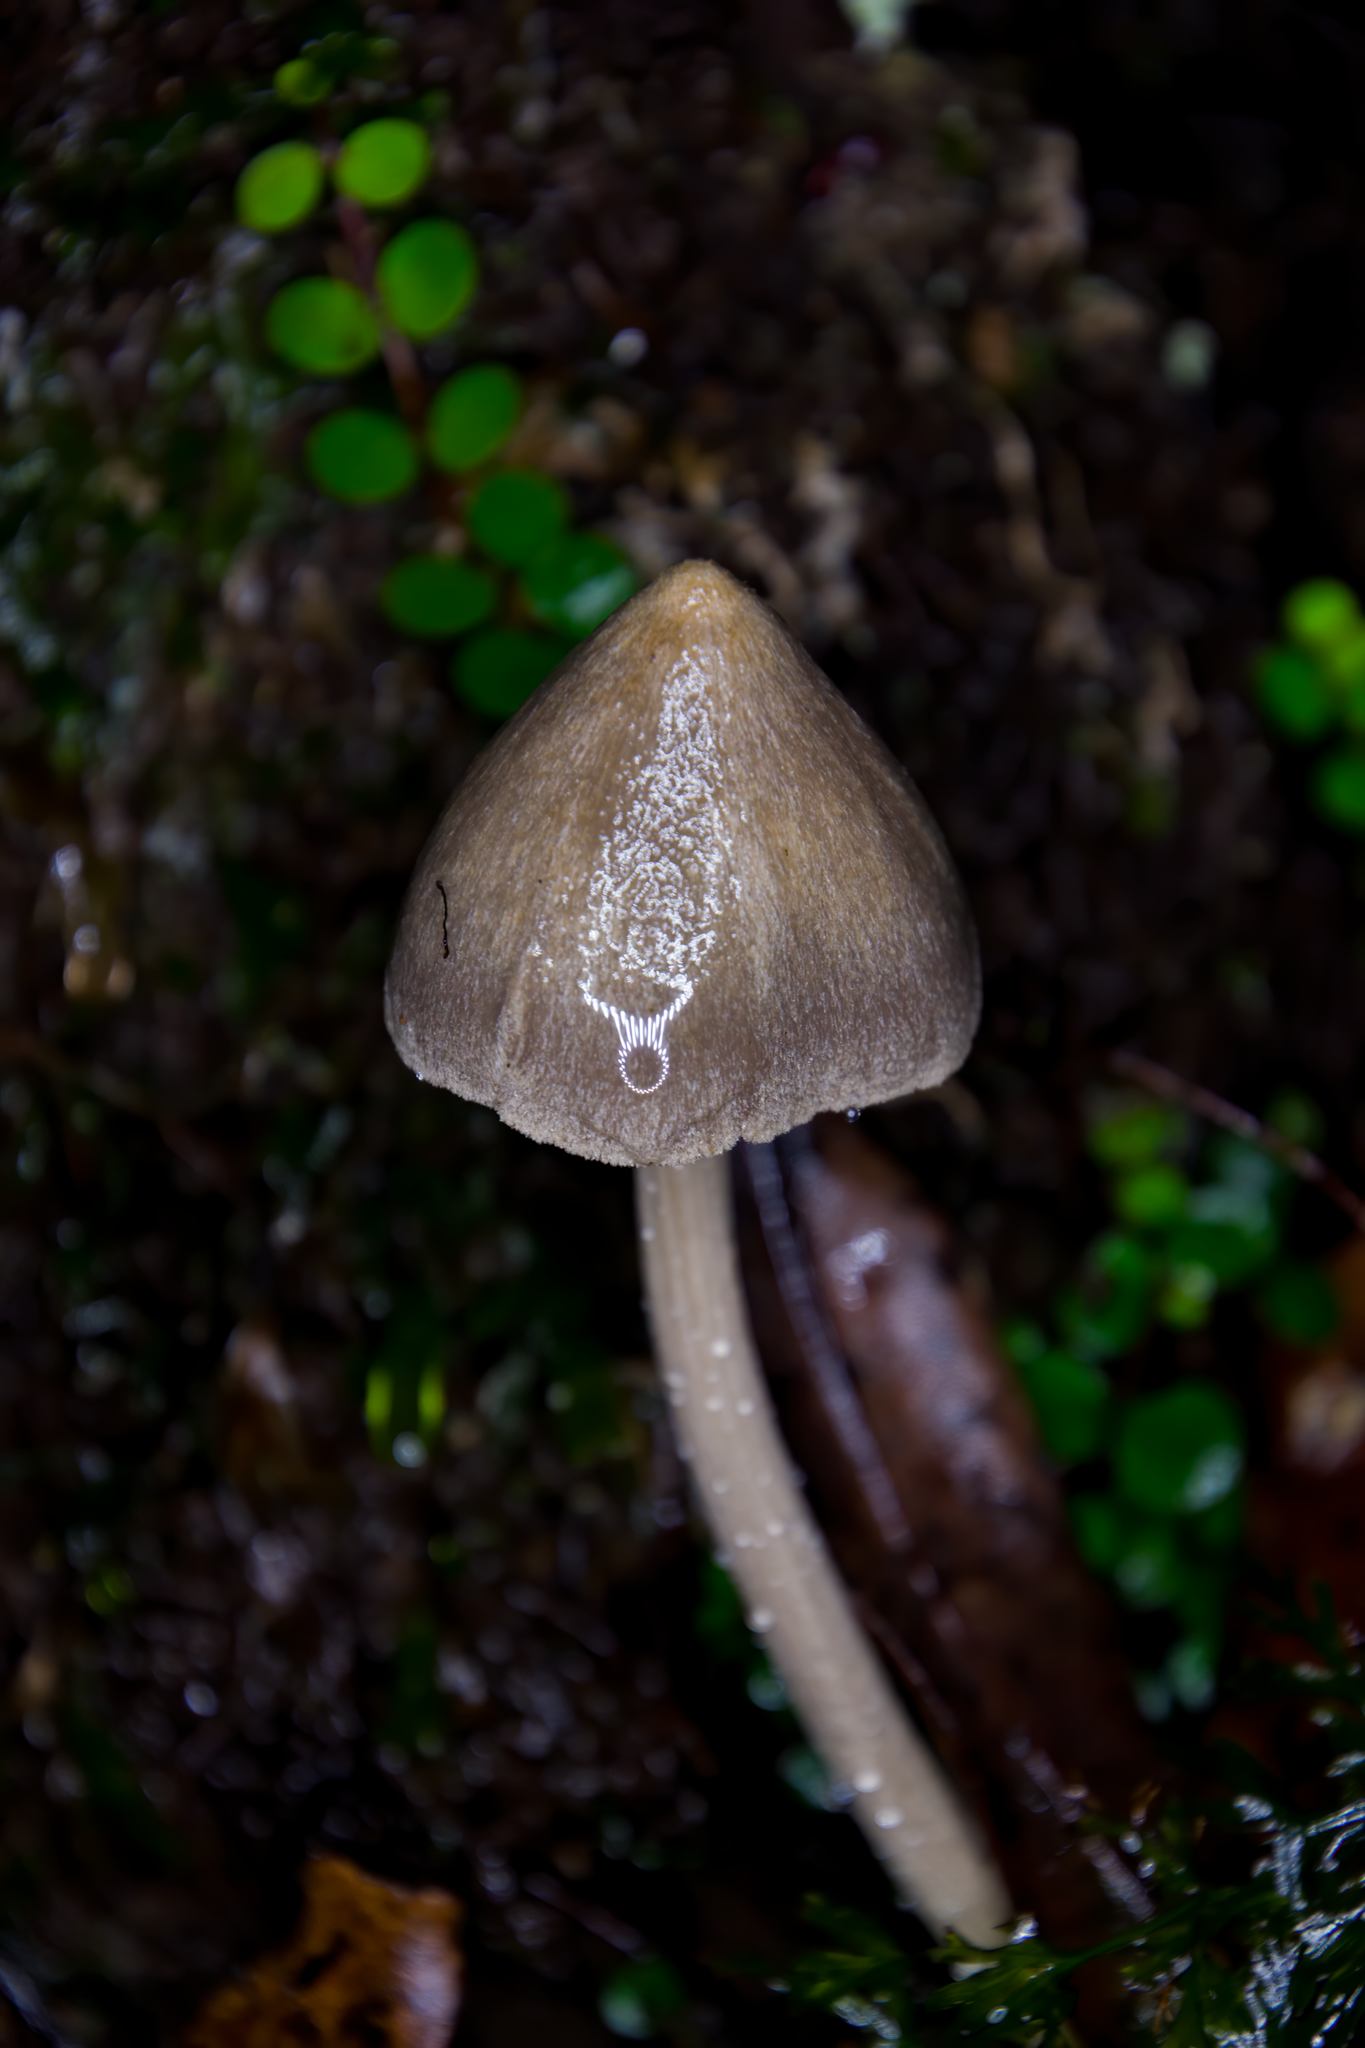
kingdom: Fungi
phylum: Basidiomycota
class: Agaricomycetes
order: Agaricales
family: Entolomataceae
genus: Entoloma
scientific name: Entoloma canoconicum
